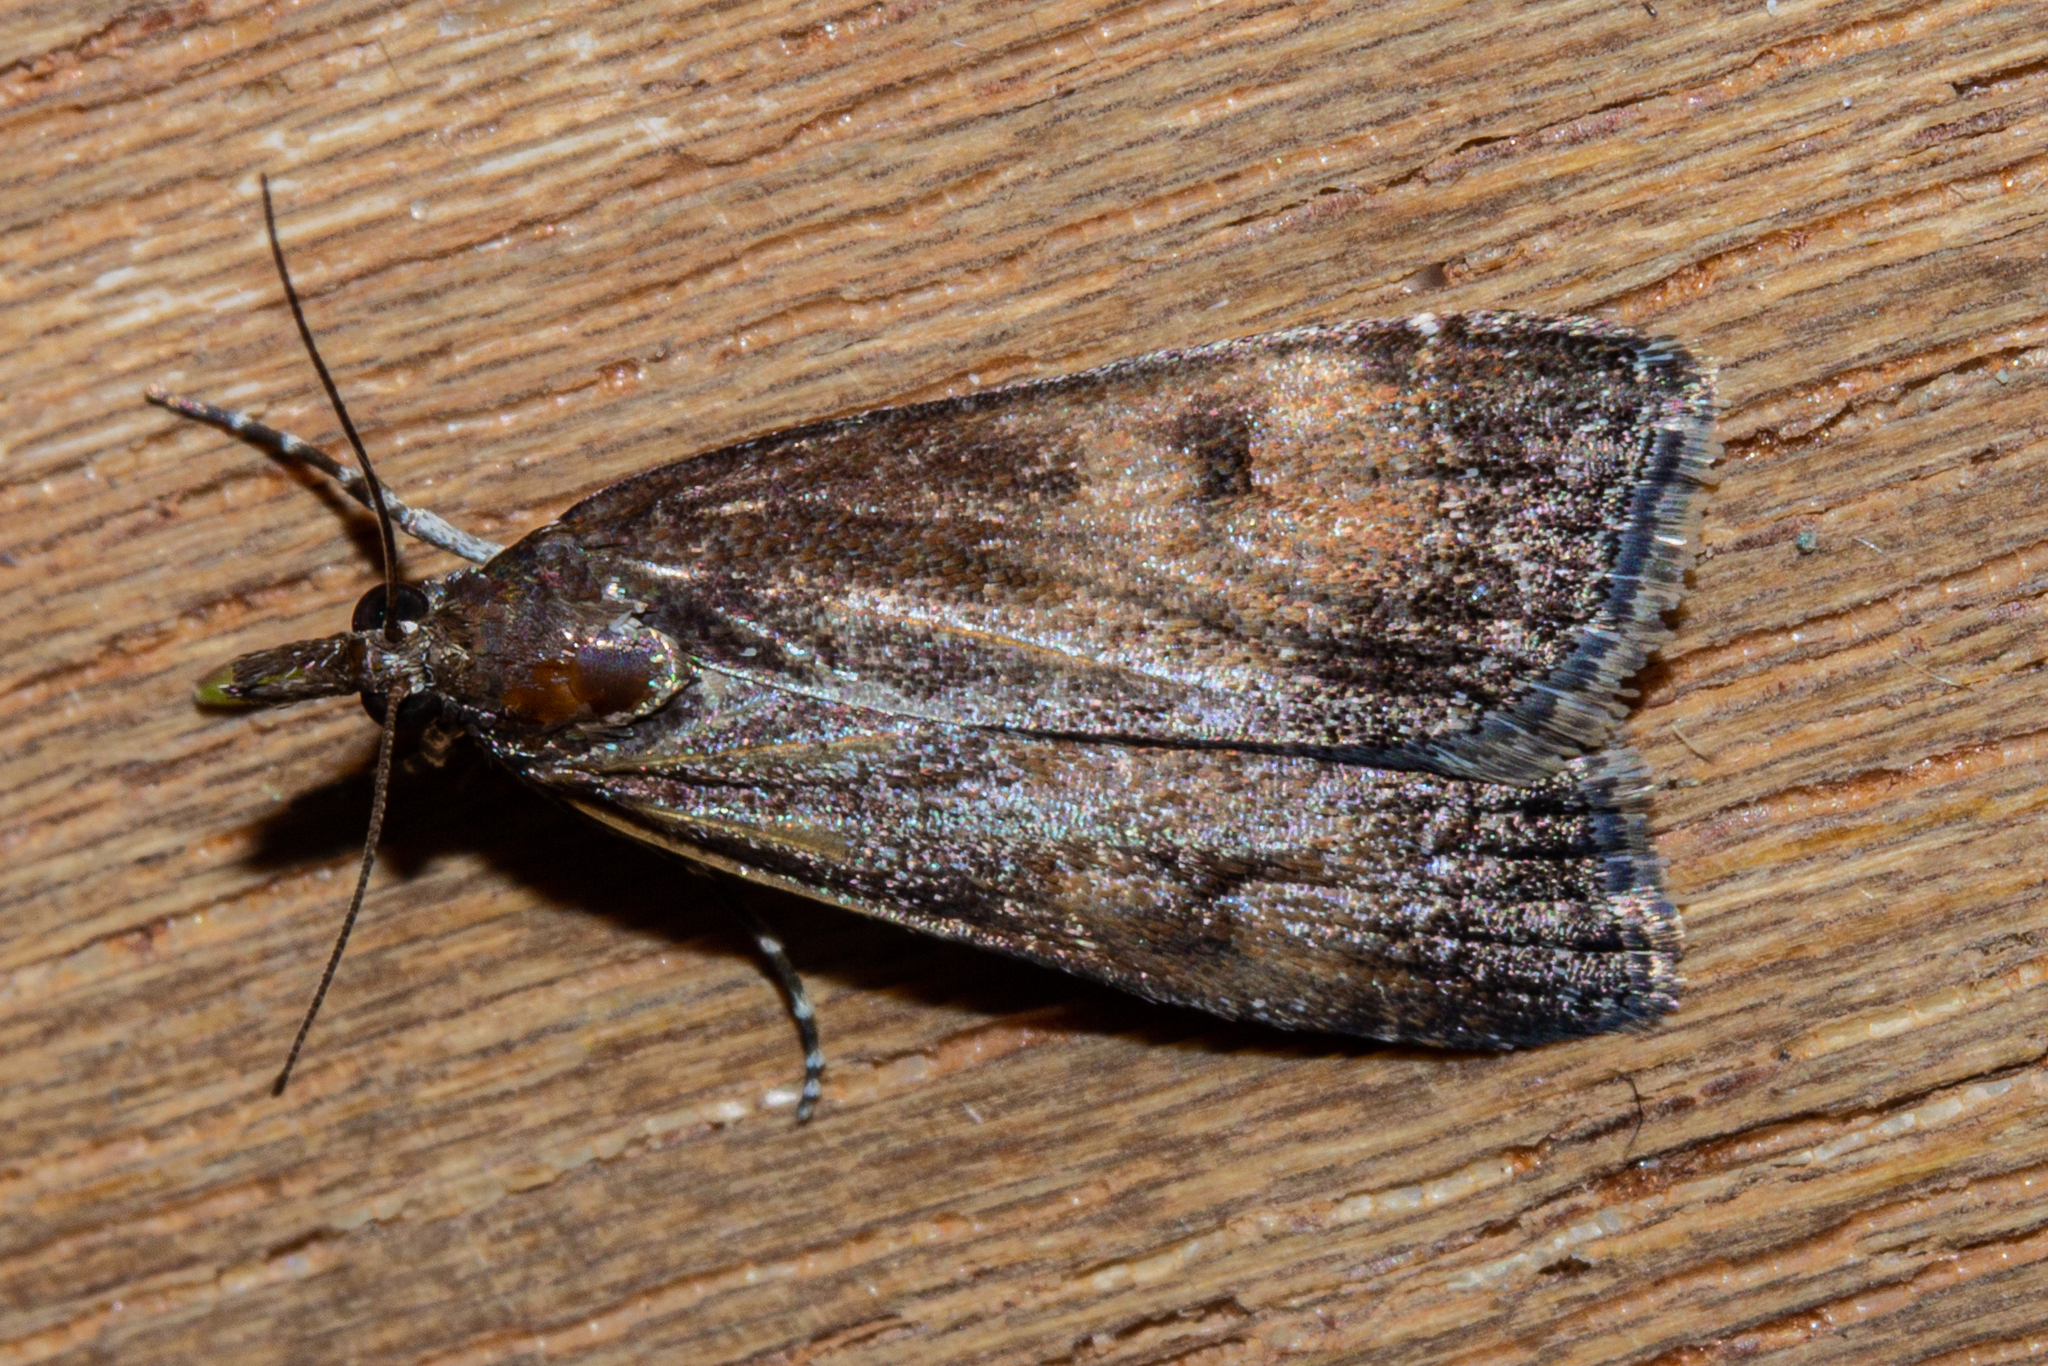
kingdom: Animalia
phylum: Arthropoda
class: Insecta
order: Lepidoptera
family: Crambidae
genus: Eudonia
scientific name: Eudonia asterisca
